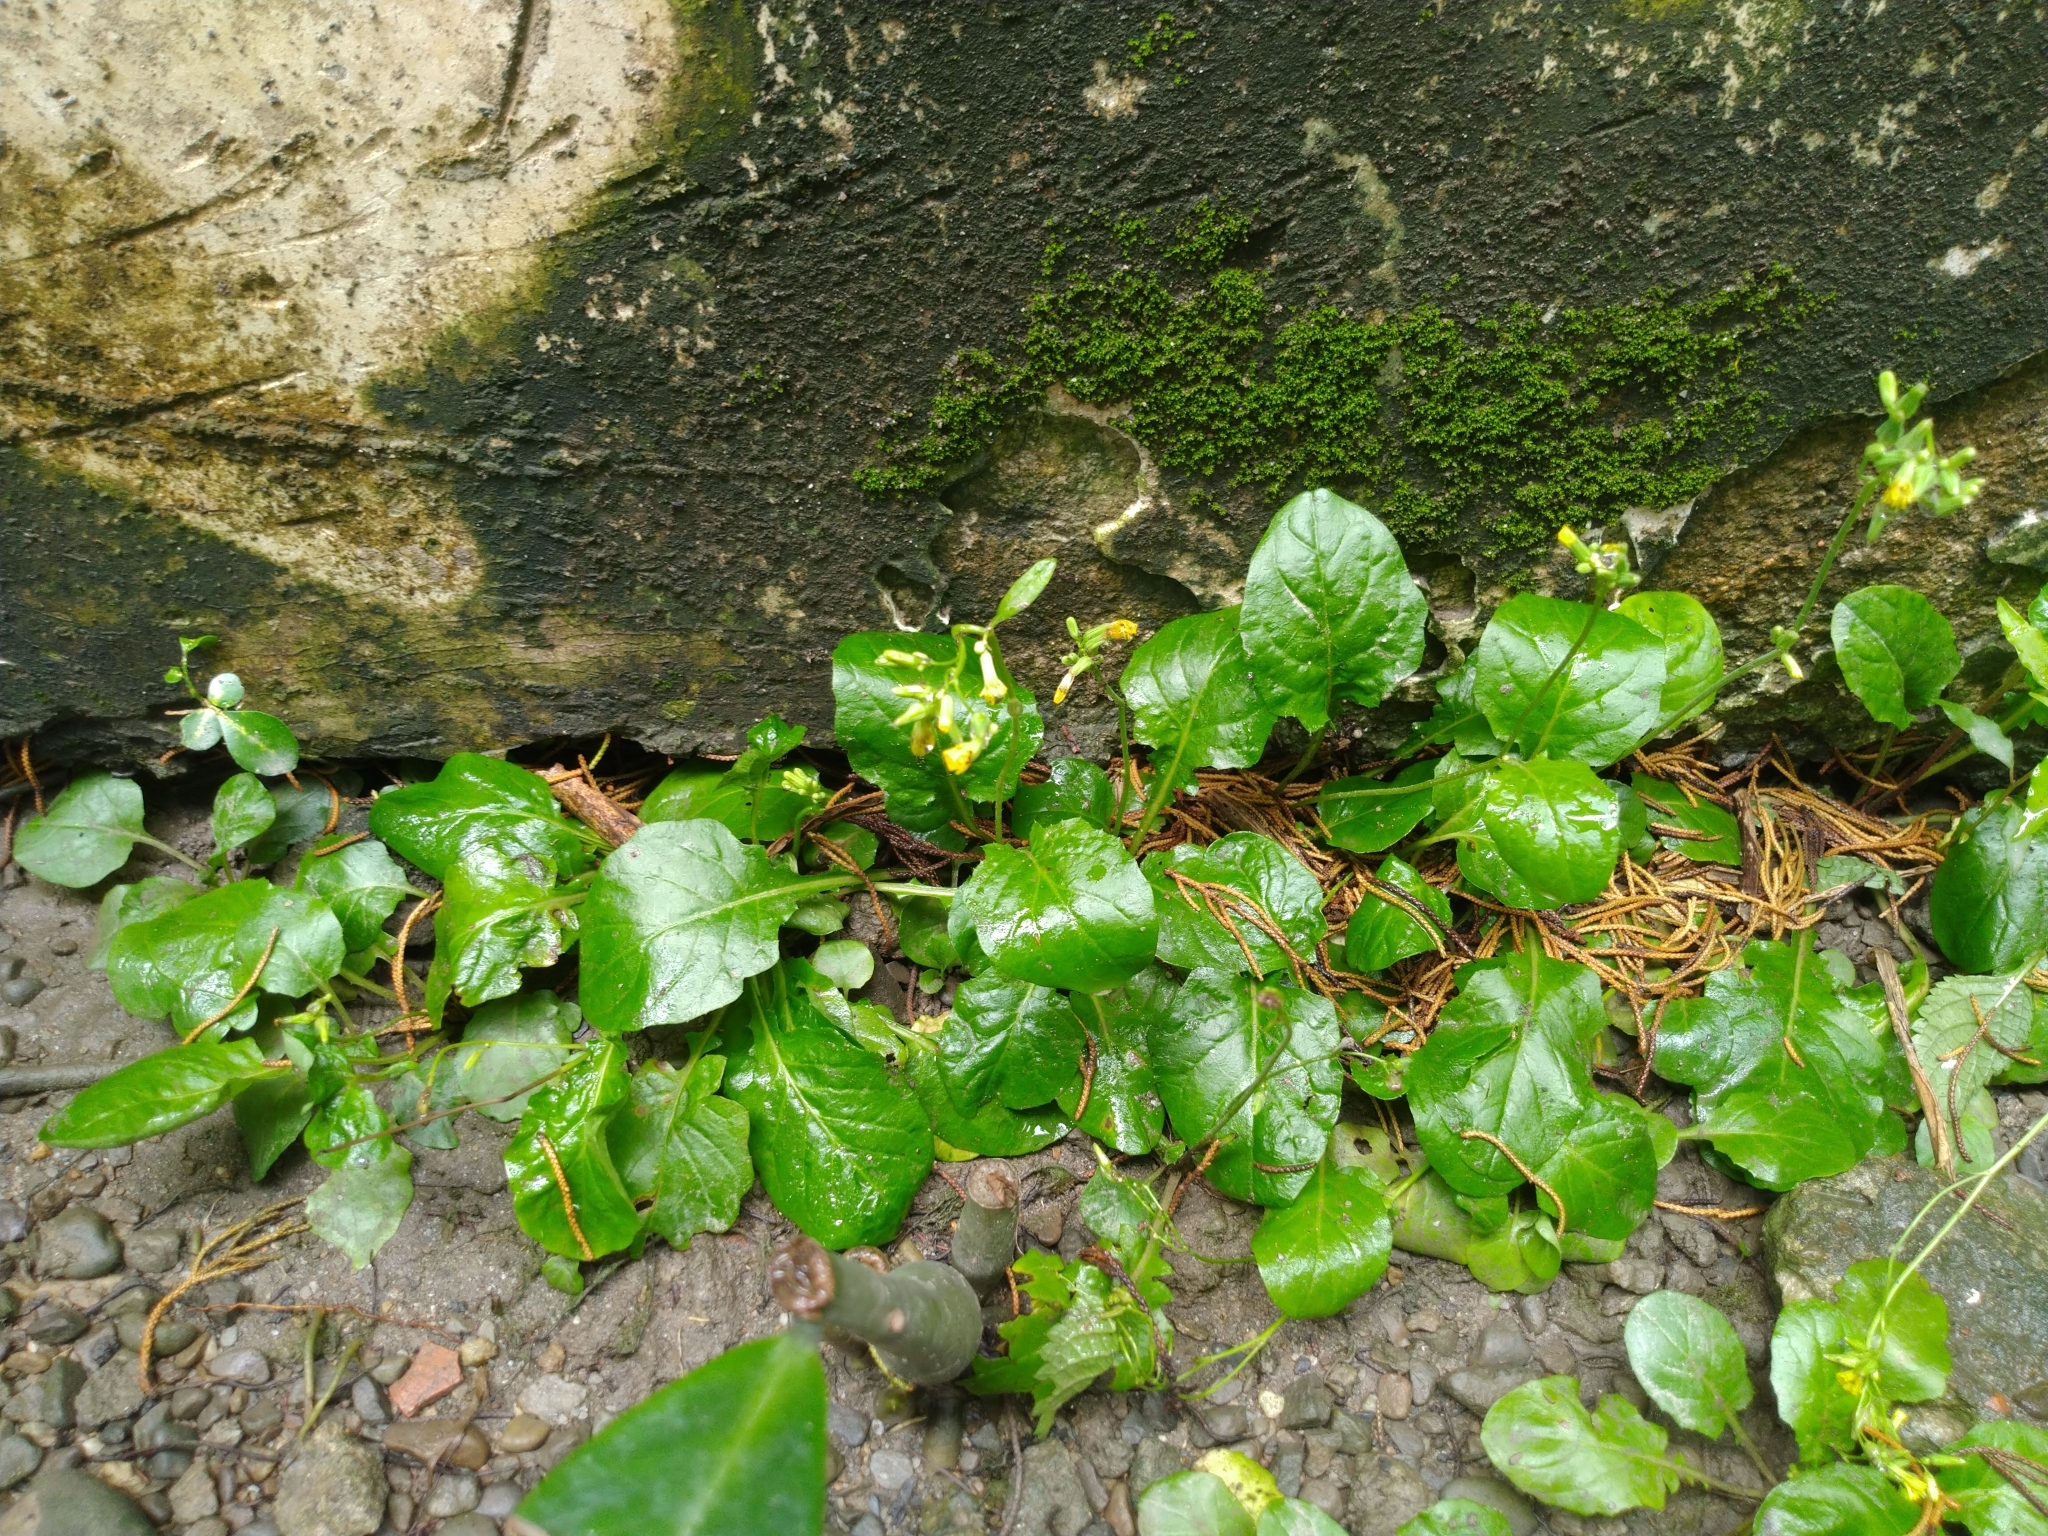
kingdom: Plantae
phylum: Tracheophyta
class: Magnoliopsida
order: Asterales
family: Asteraceae
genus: Youngia
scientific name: Youngia japonica
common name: Oriental false hawksbeard
